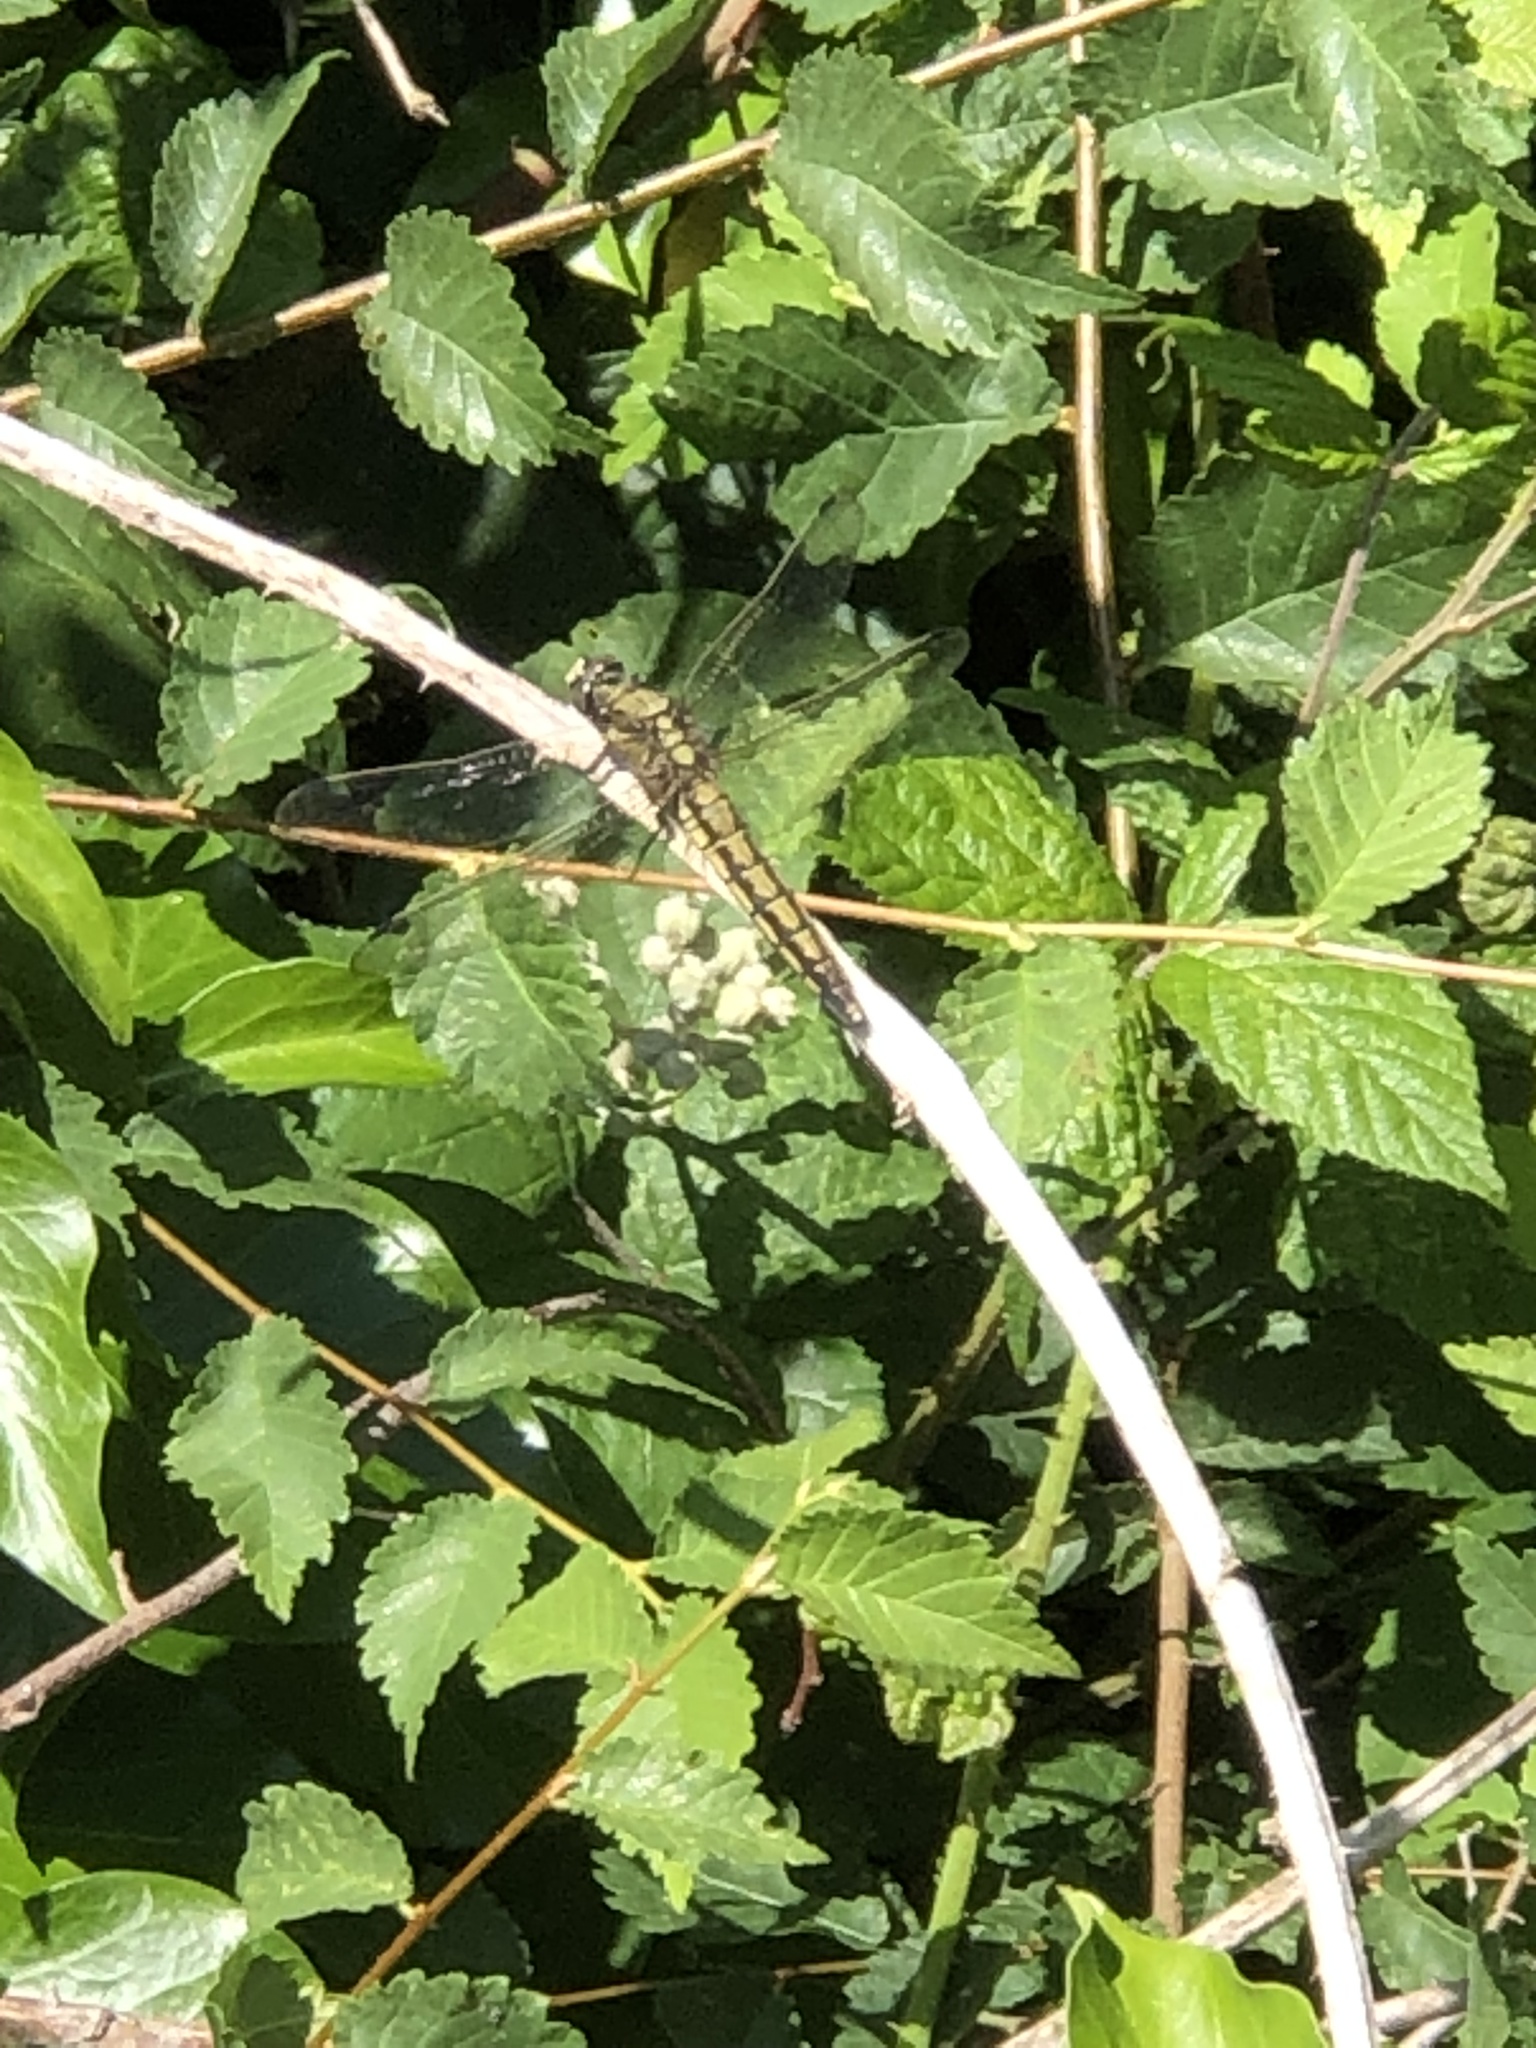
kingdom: Animalia
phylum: Arthropoda
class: Insecta
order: Odonata
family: Libellulidae
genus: Orthetrum
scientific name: Orthetrum cancellatum
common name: Black-tailed skimmer
